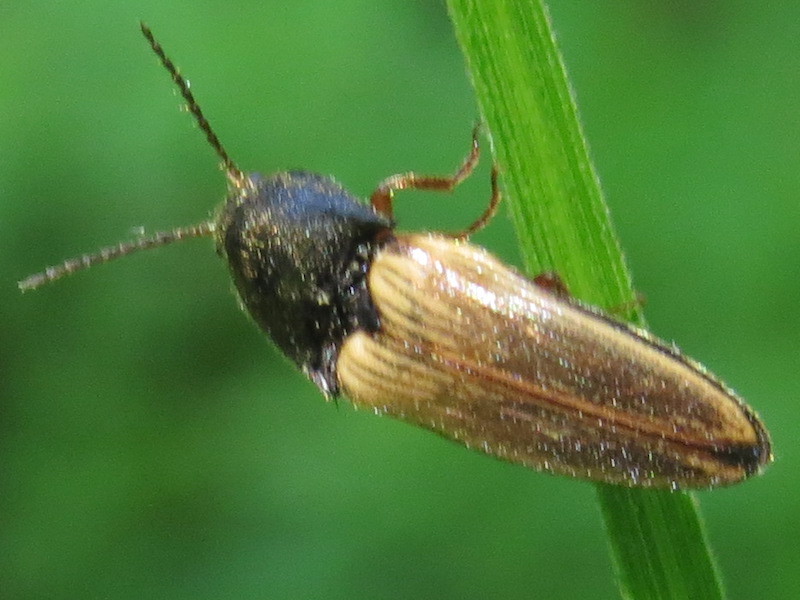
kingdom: Animalia
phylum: Arthropoda
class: Insecta
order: Coleoptera
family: Elateridae
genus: Ampedus
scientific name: Ampedus nigricollis
